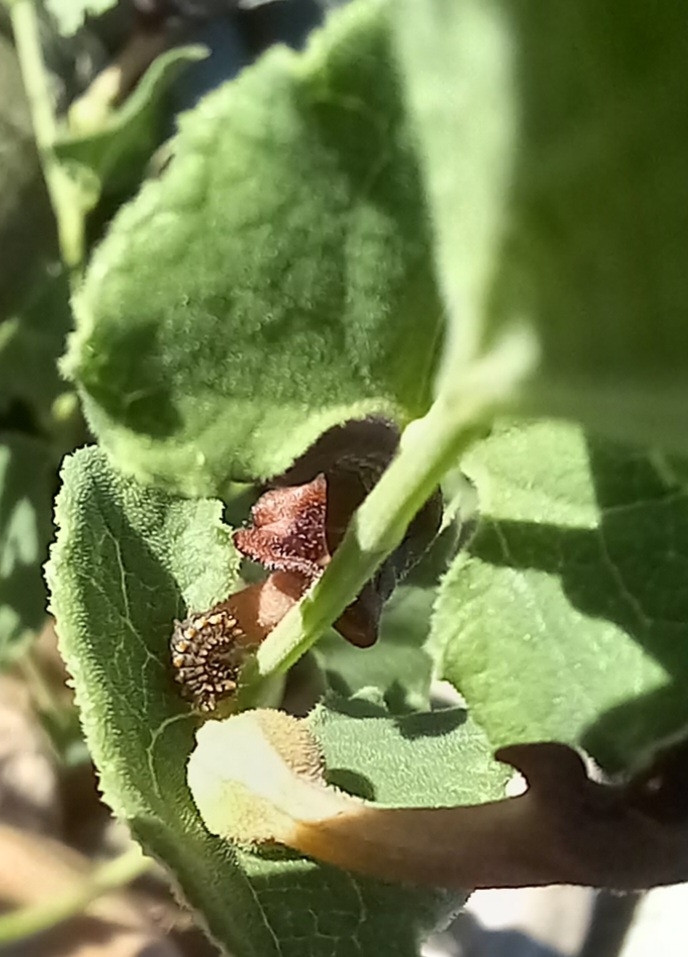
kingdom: Animalia
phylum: Arthropoda
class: Insecta
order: Lepidoptera
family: Papilionidae
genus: Zerynthia
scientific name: Zerynthia rumina
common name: Spanish festoon
